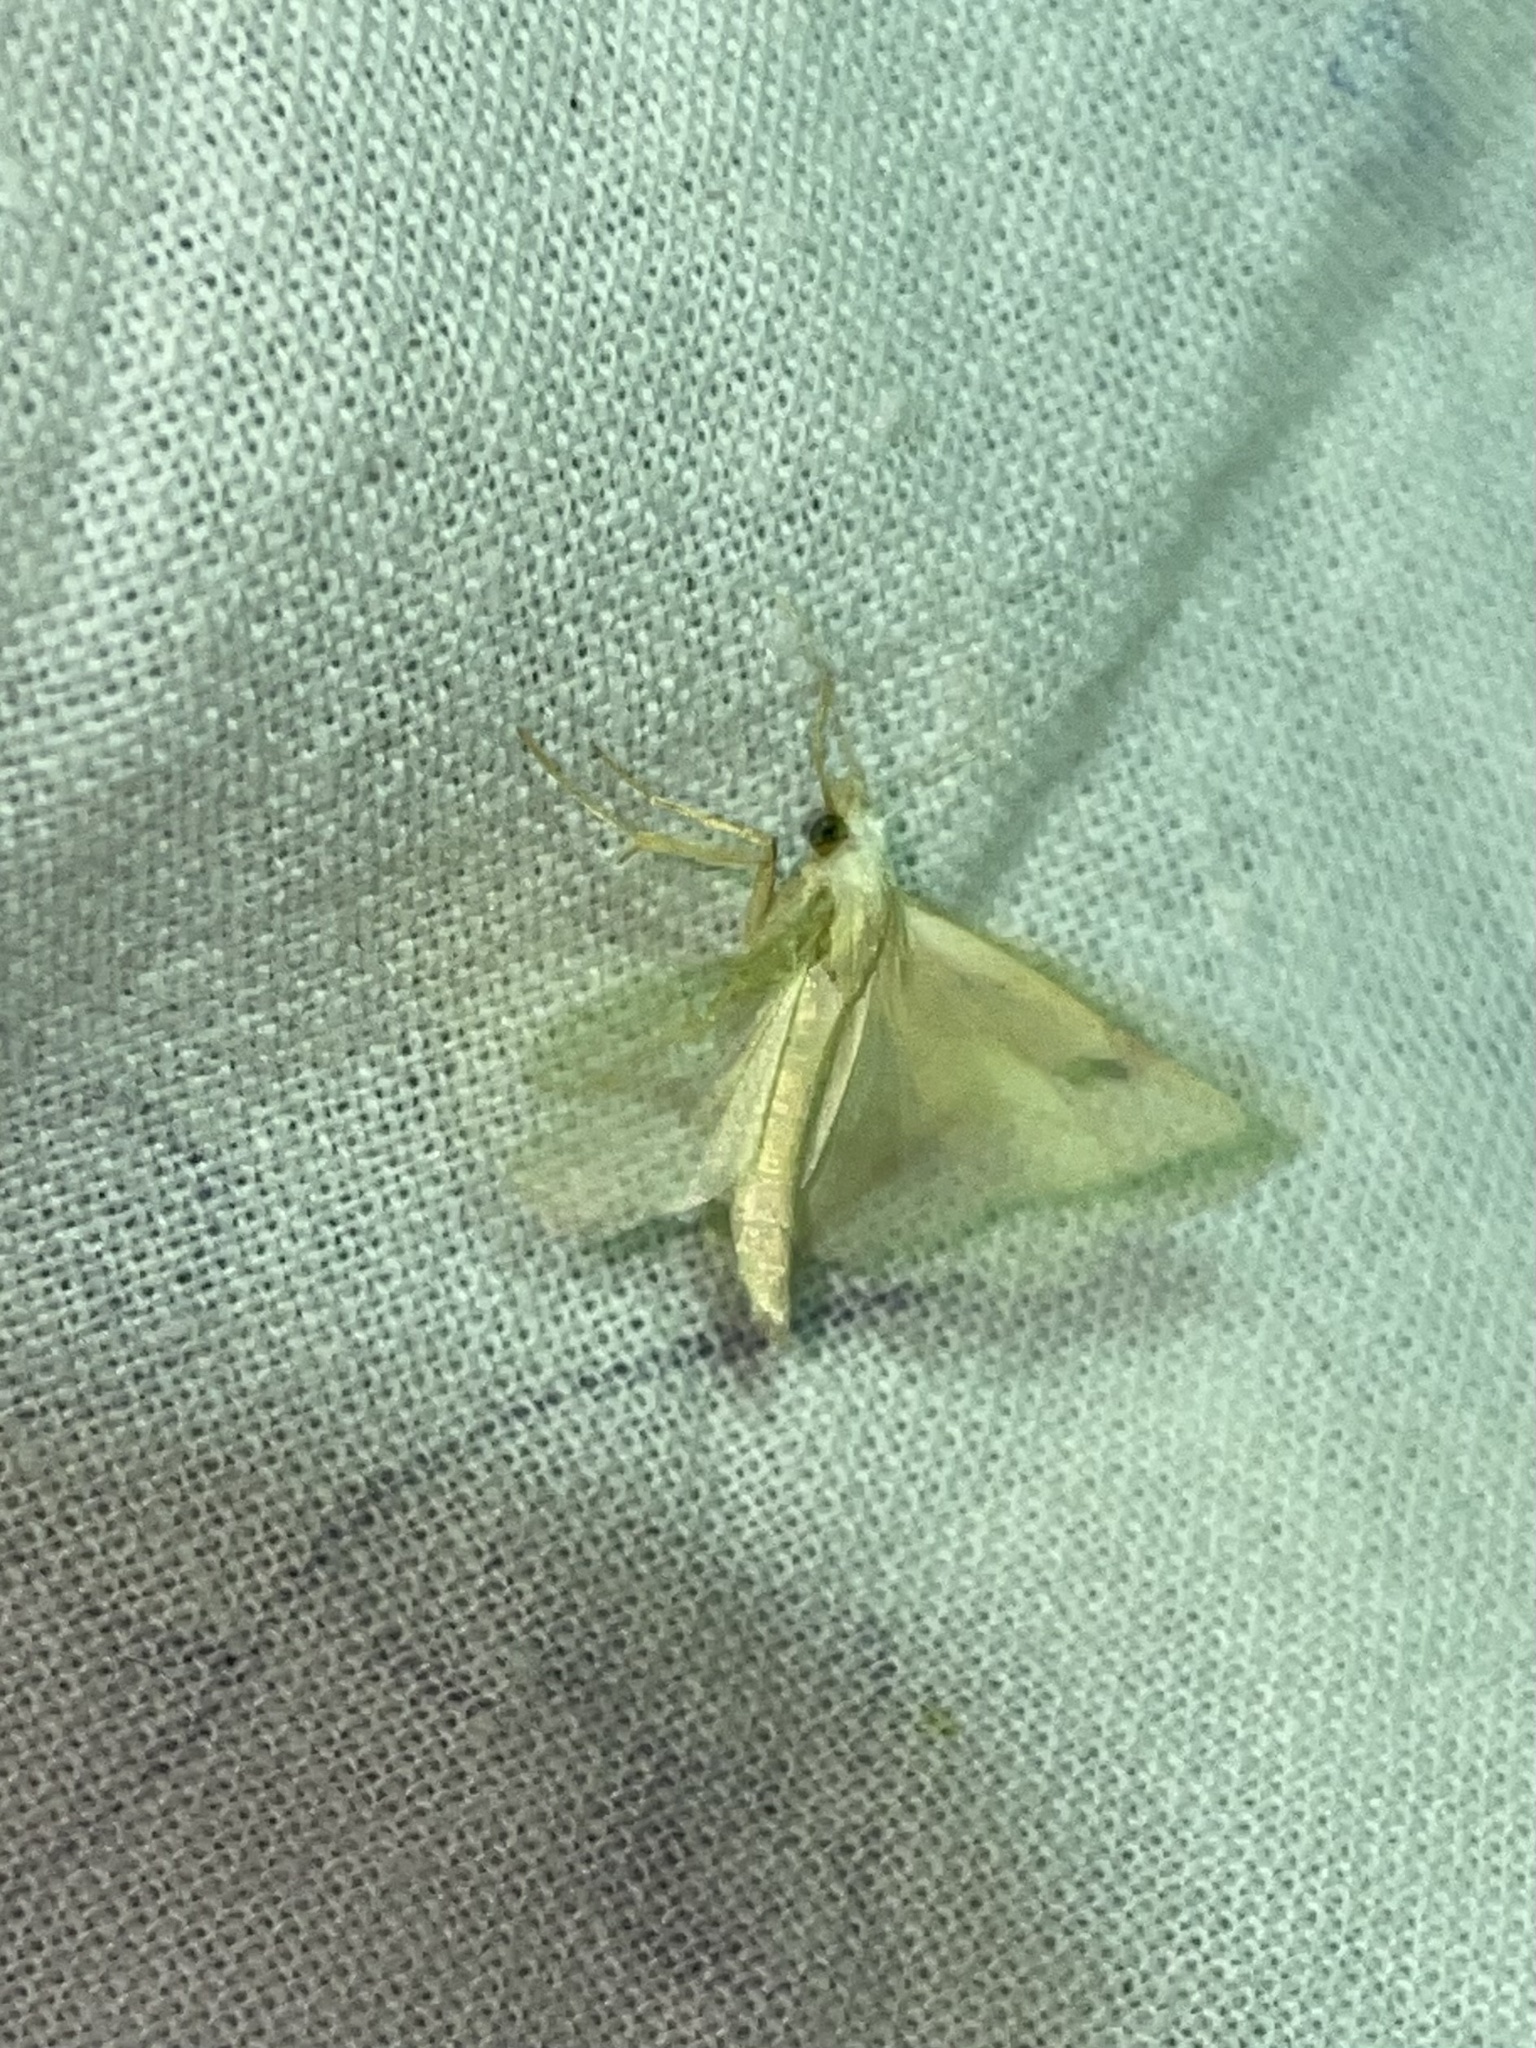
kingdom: Animalia
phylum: Arthropoda
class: Insecta
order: Lepidoptera
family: Erebidae
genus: Rivula
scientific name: Rivula sericealis
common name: Straw dot
